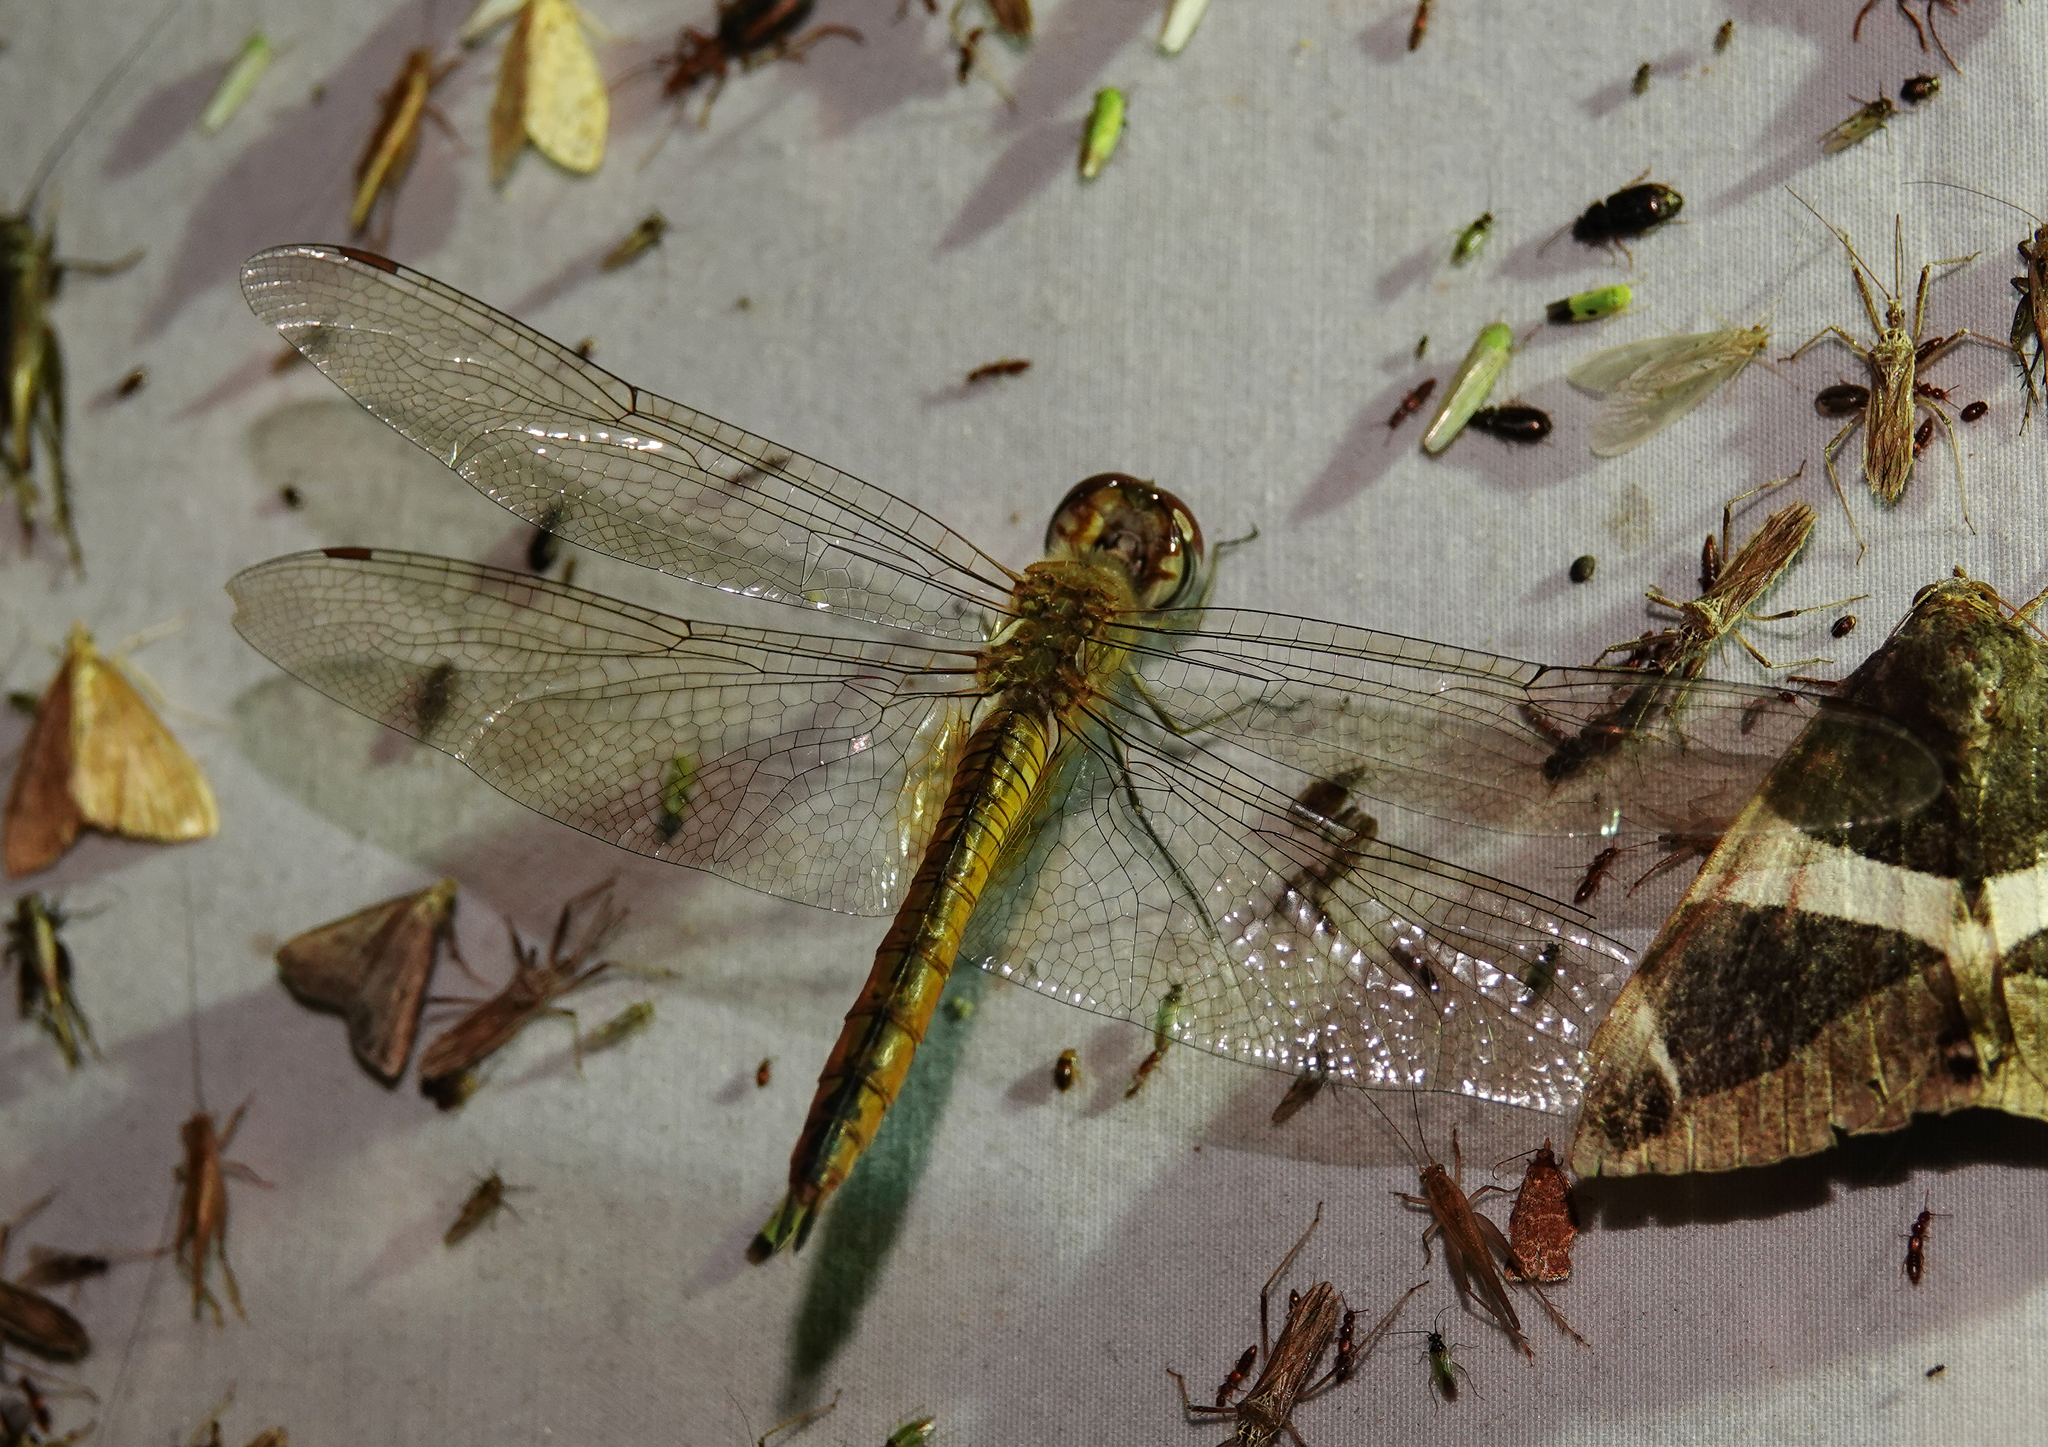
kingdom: Animalia
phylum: Arthropoda
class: Insecta
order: Odonata
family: Libellulidae
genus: Pantala
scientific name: Pantala flavescens
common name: Wandering glider
